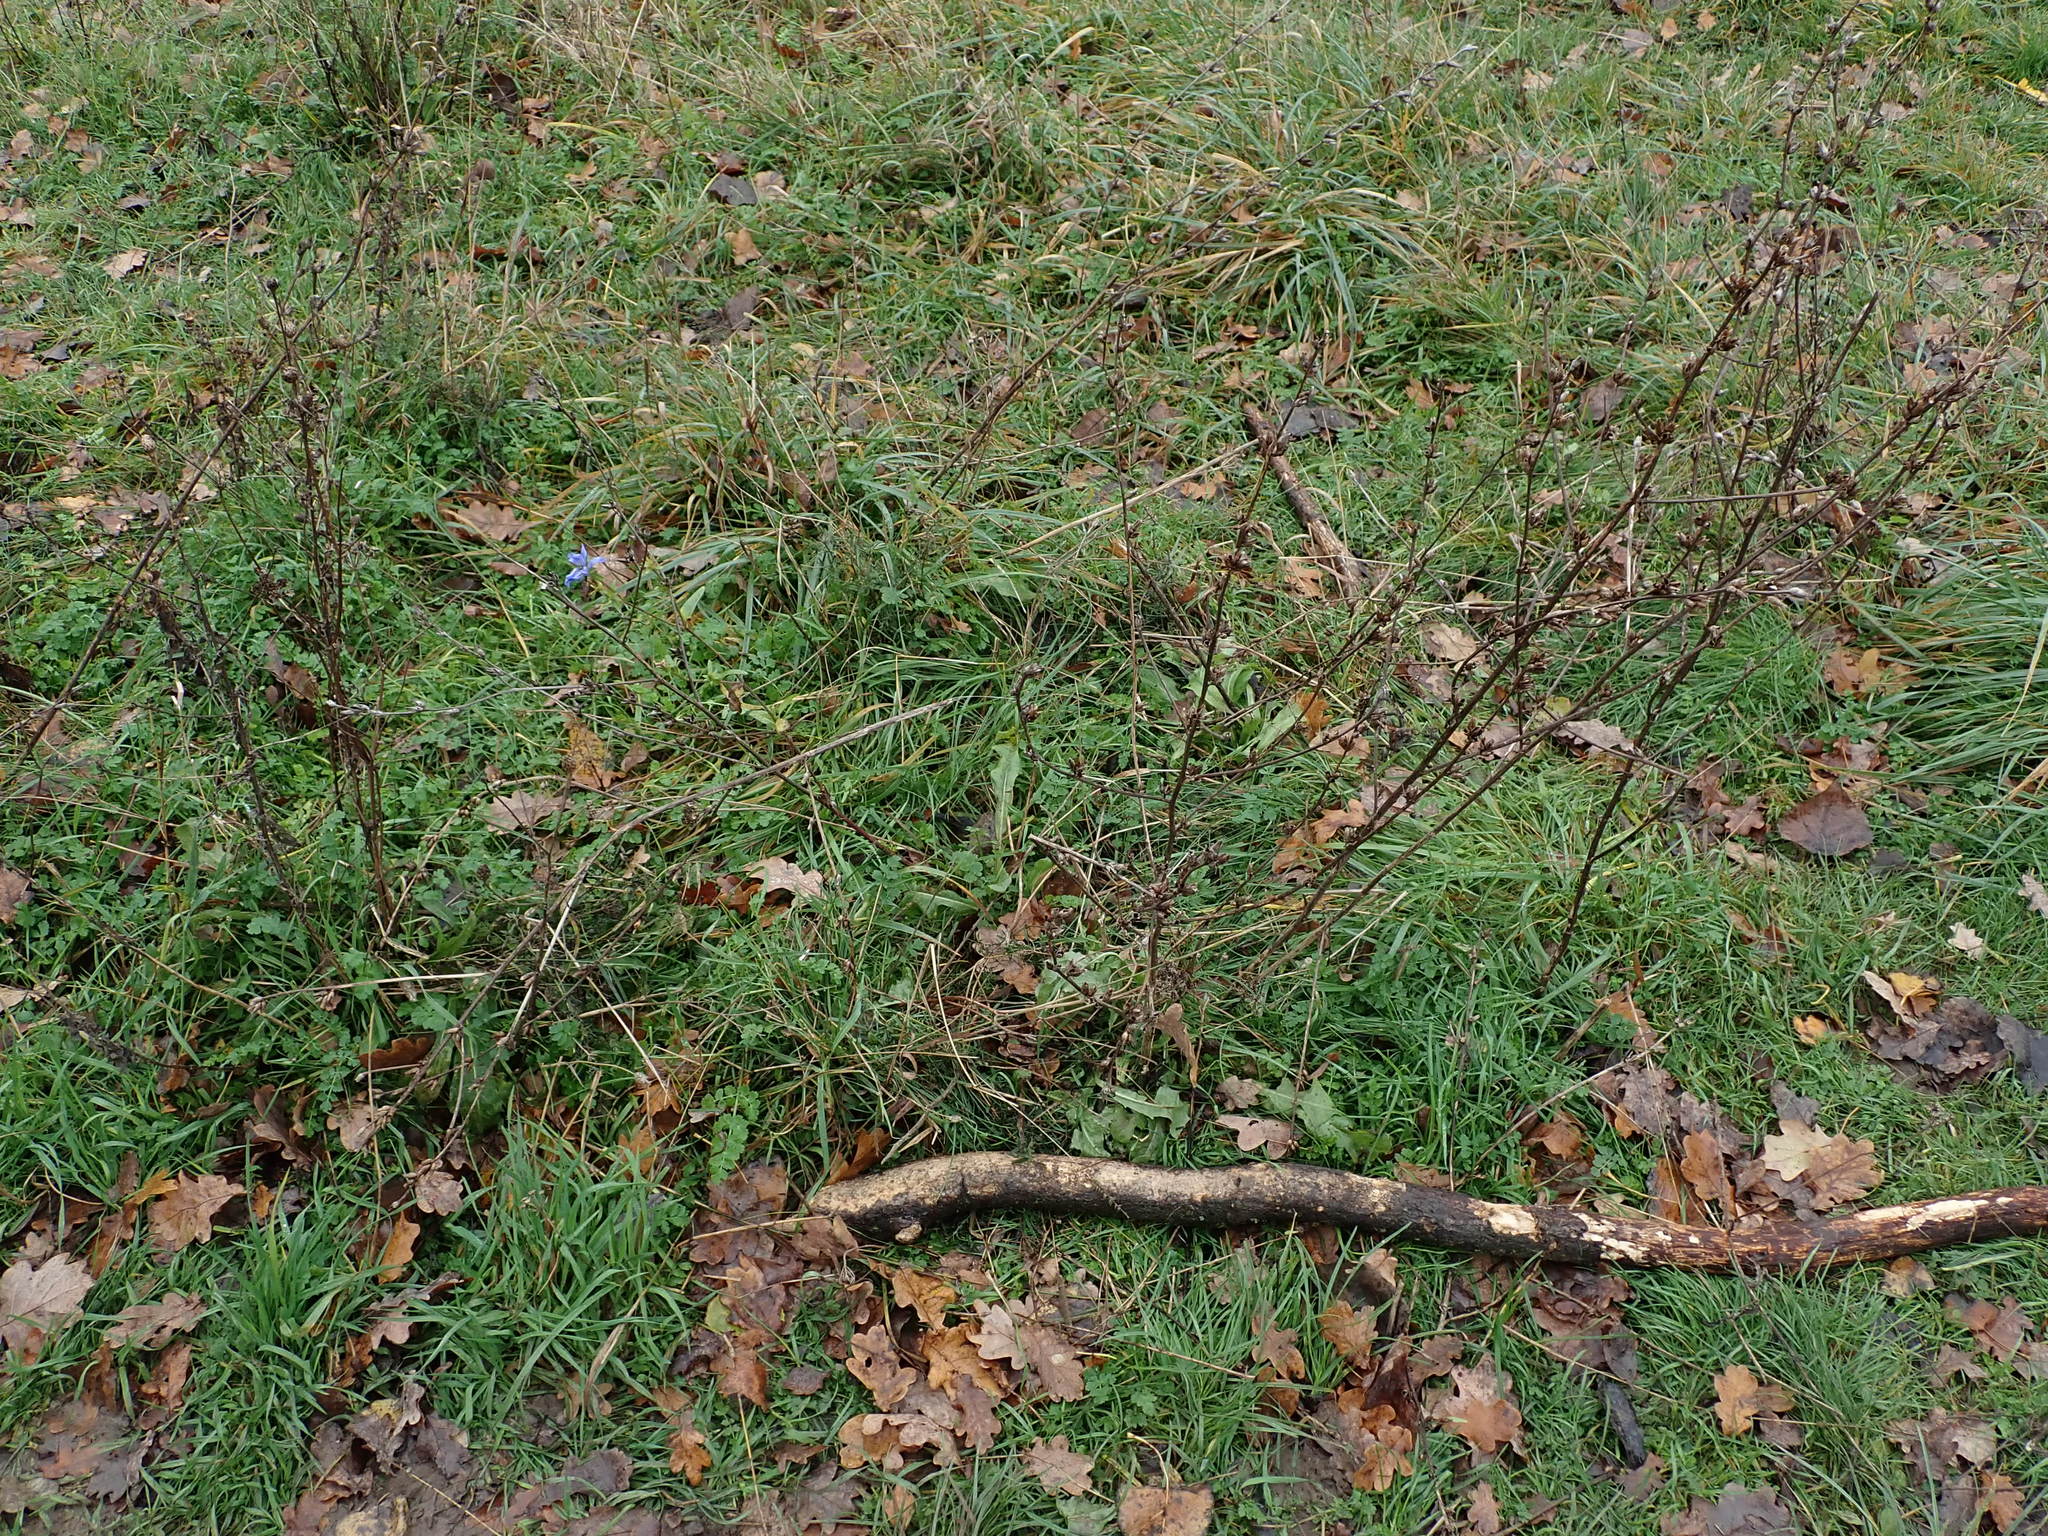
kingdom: Plantae
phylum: Tracheophyta
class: Magnoliopsida
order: Asterales
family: Asteraceae
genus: Cichorium
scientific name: Cichorium intybus
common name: Chicory
